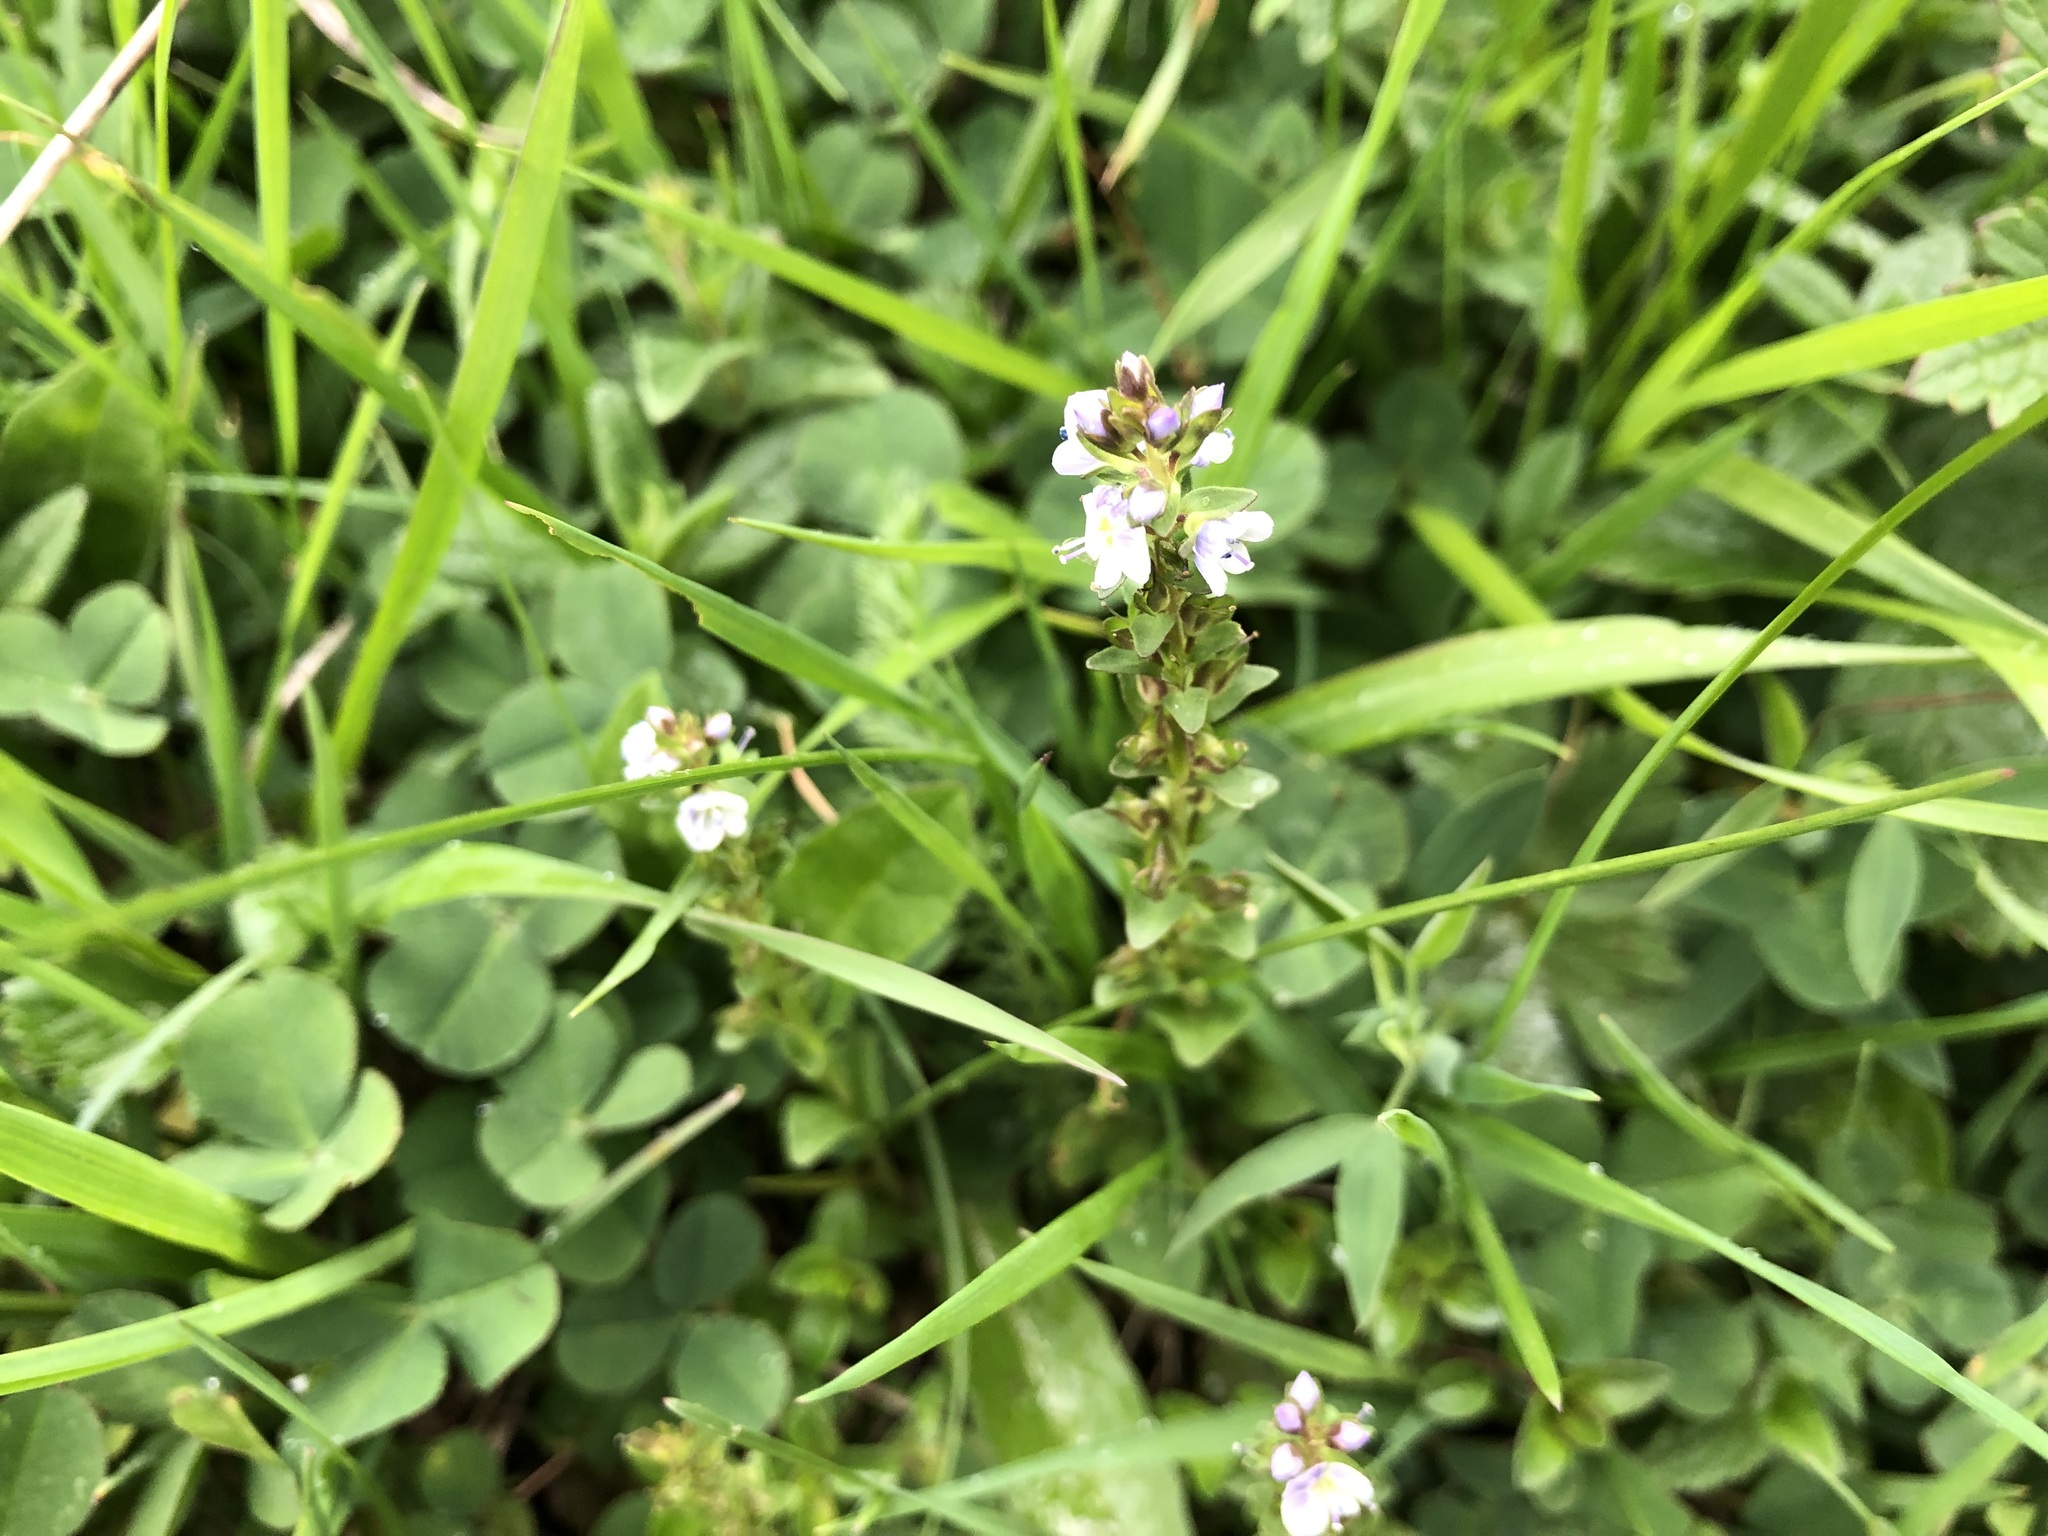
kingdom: Plantae
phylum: Tracheophyta
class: Magnoliopsida
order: Lamiales
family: Plantaginaceae
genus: Veronica
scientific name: Veronica serpyllifolia
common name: Thyme-leaved speedwell
